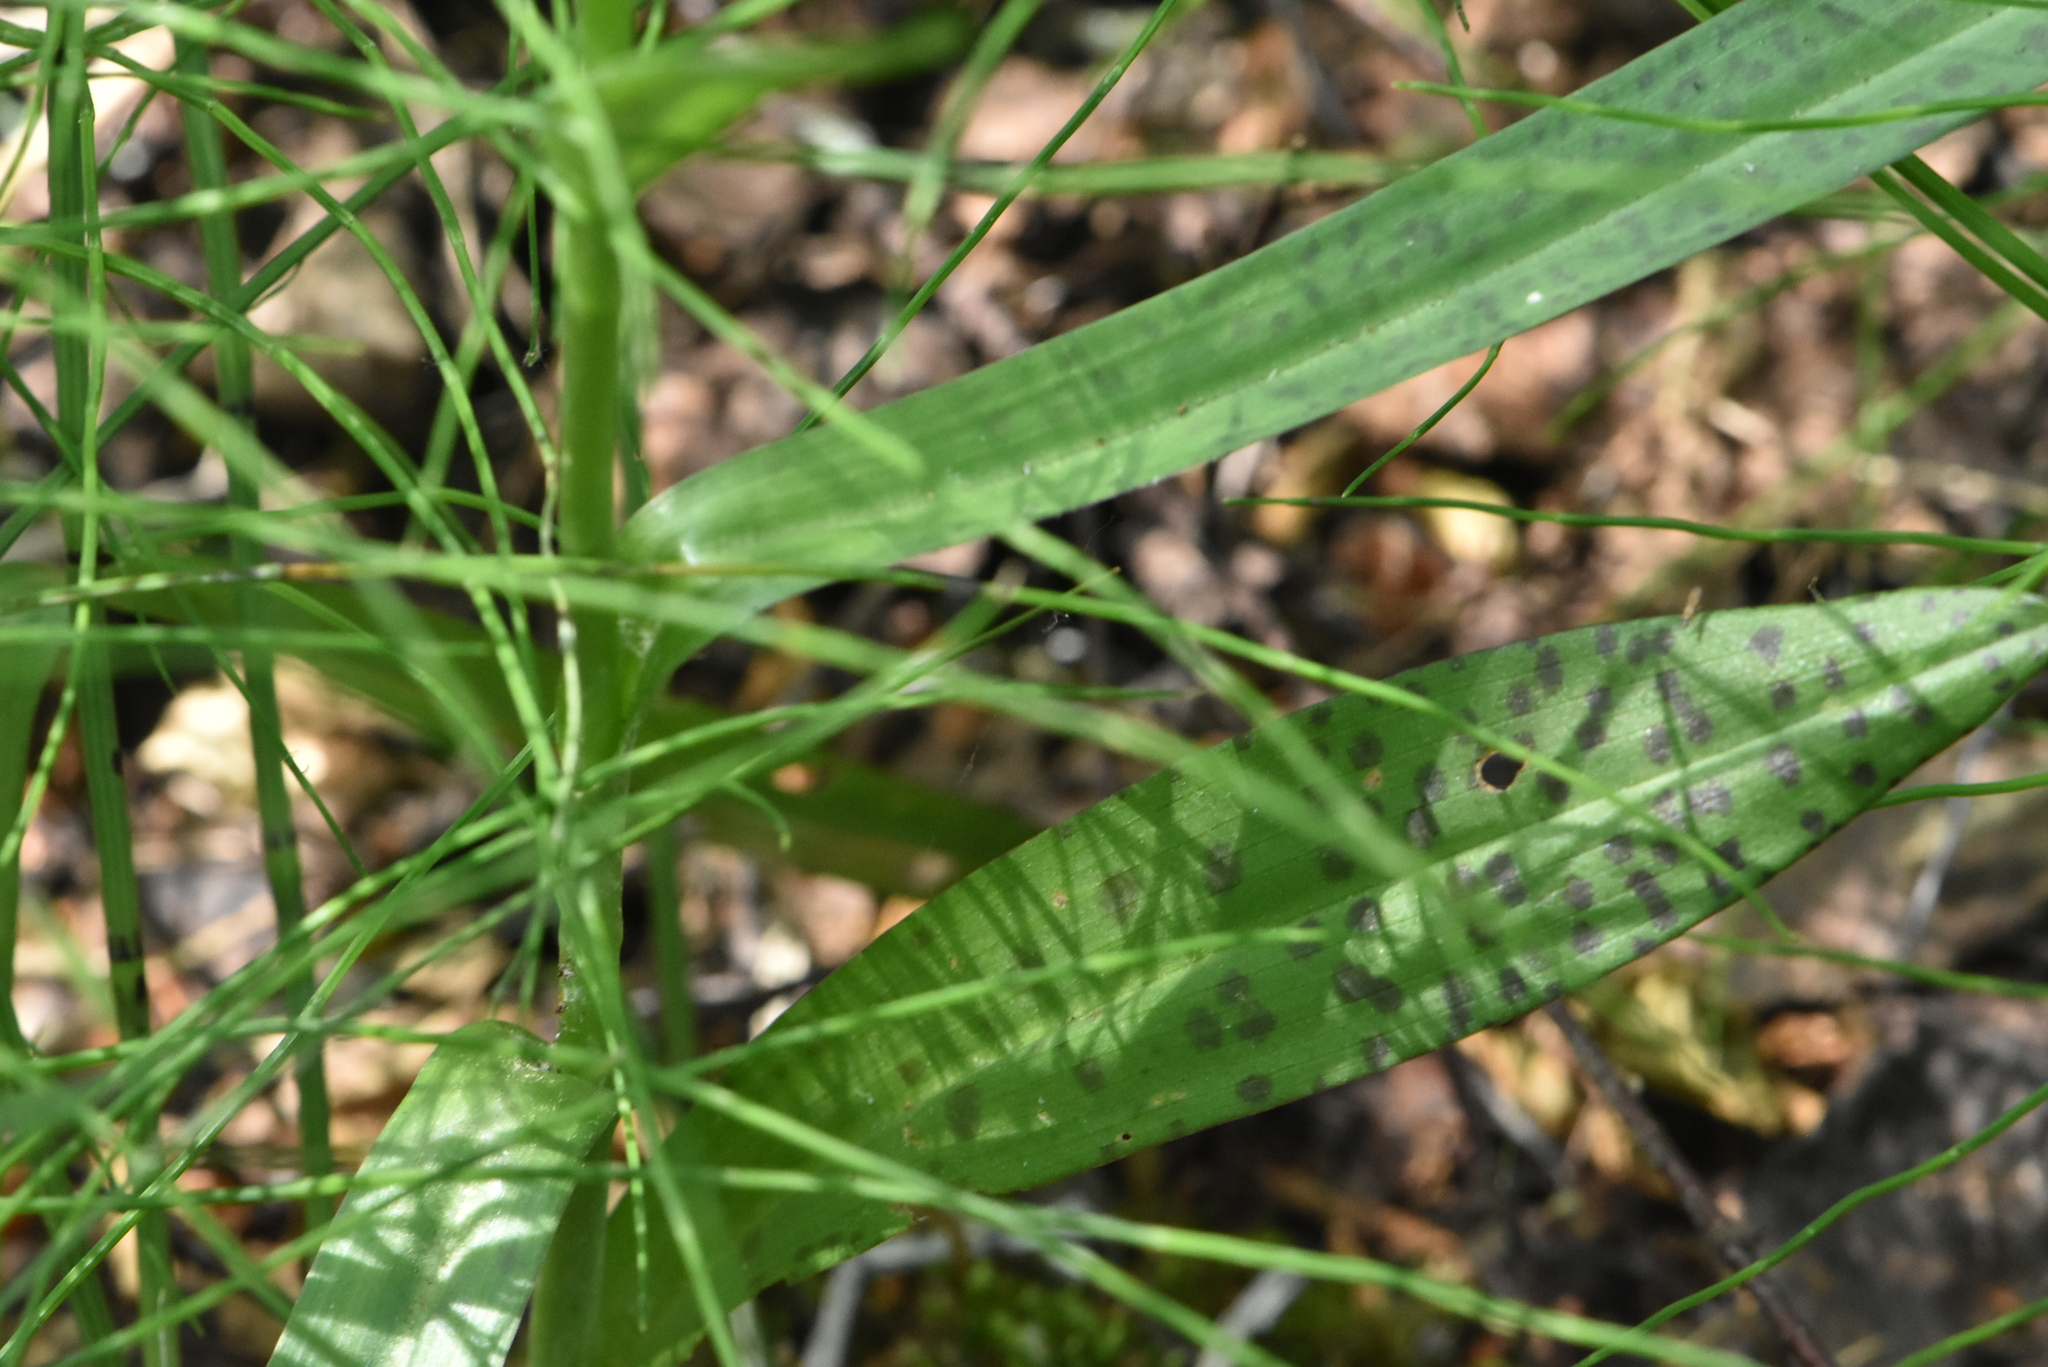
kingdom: Plantae
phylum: Tracheophyta
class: Liliopsida
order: Asparagales
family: Orchidaceae
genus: Dactylorhiza
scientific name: Dactylorhiza majalis
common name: Marsh orchid
